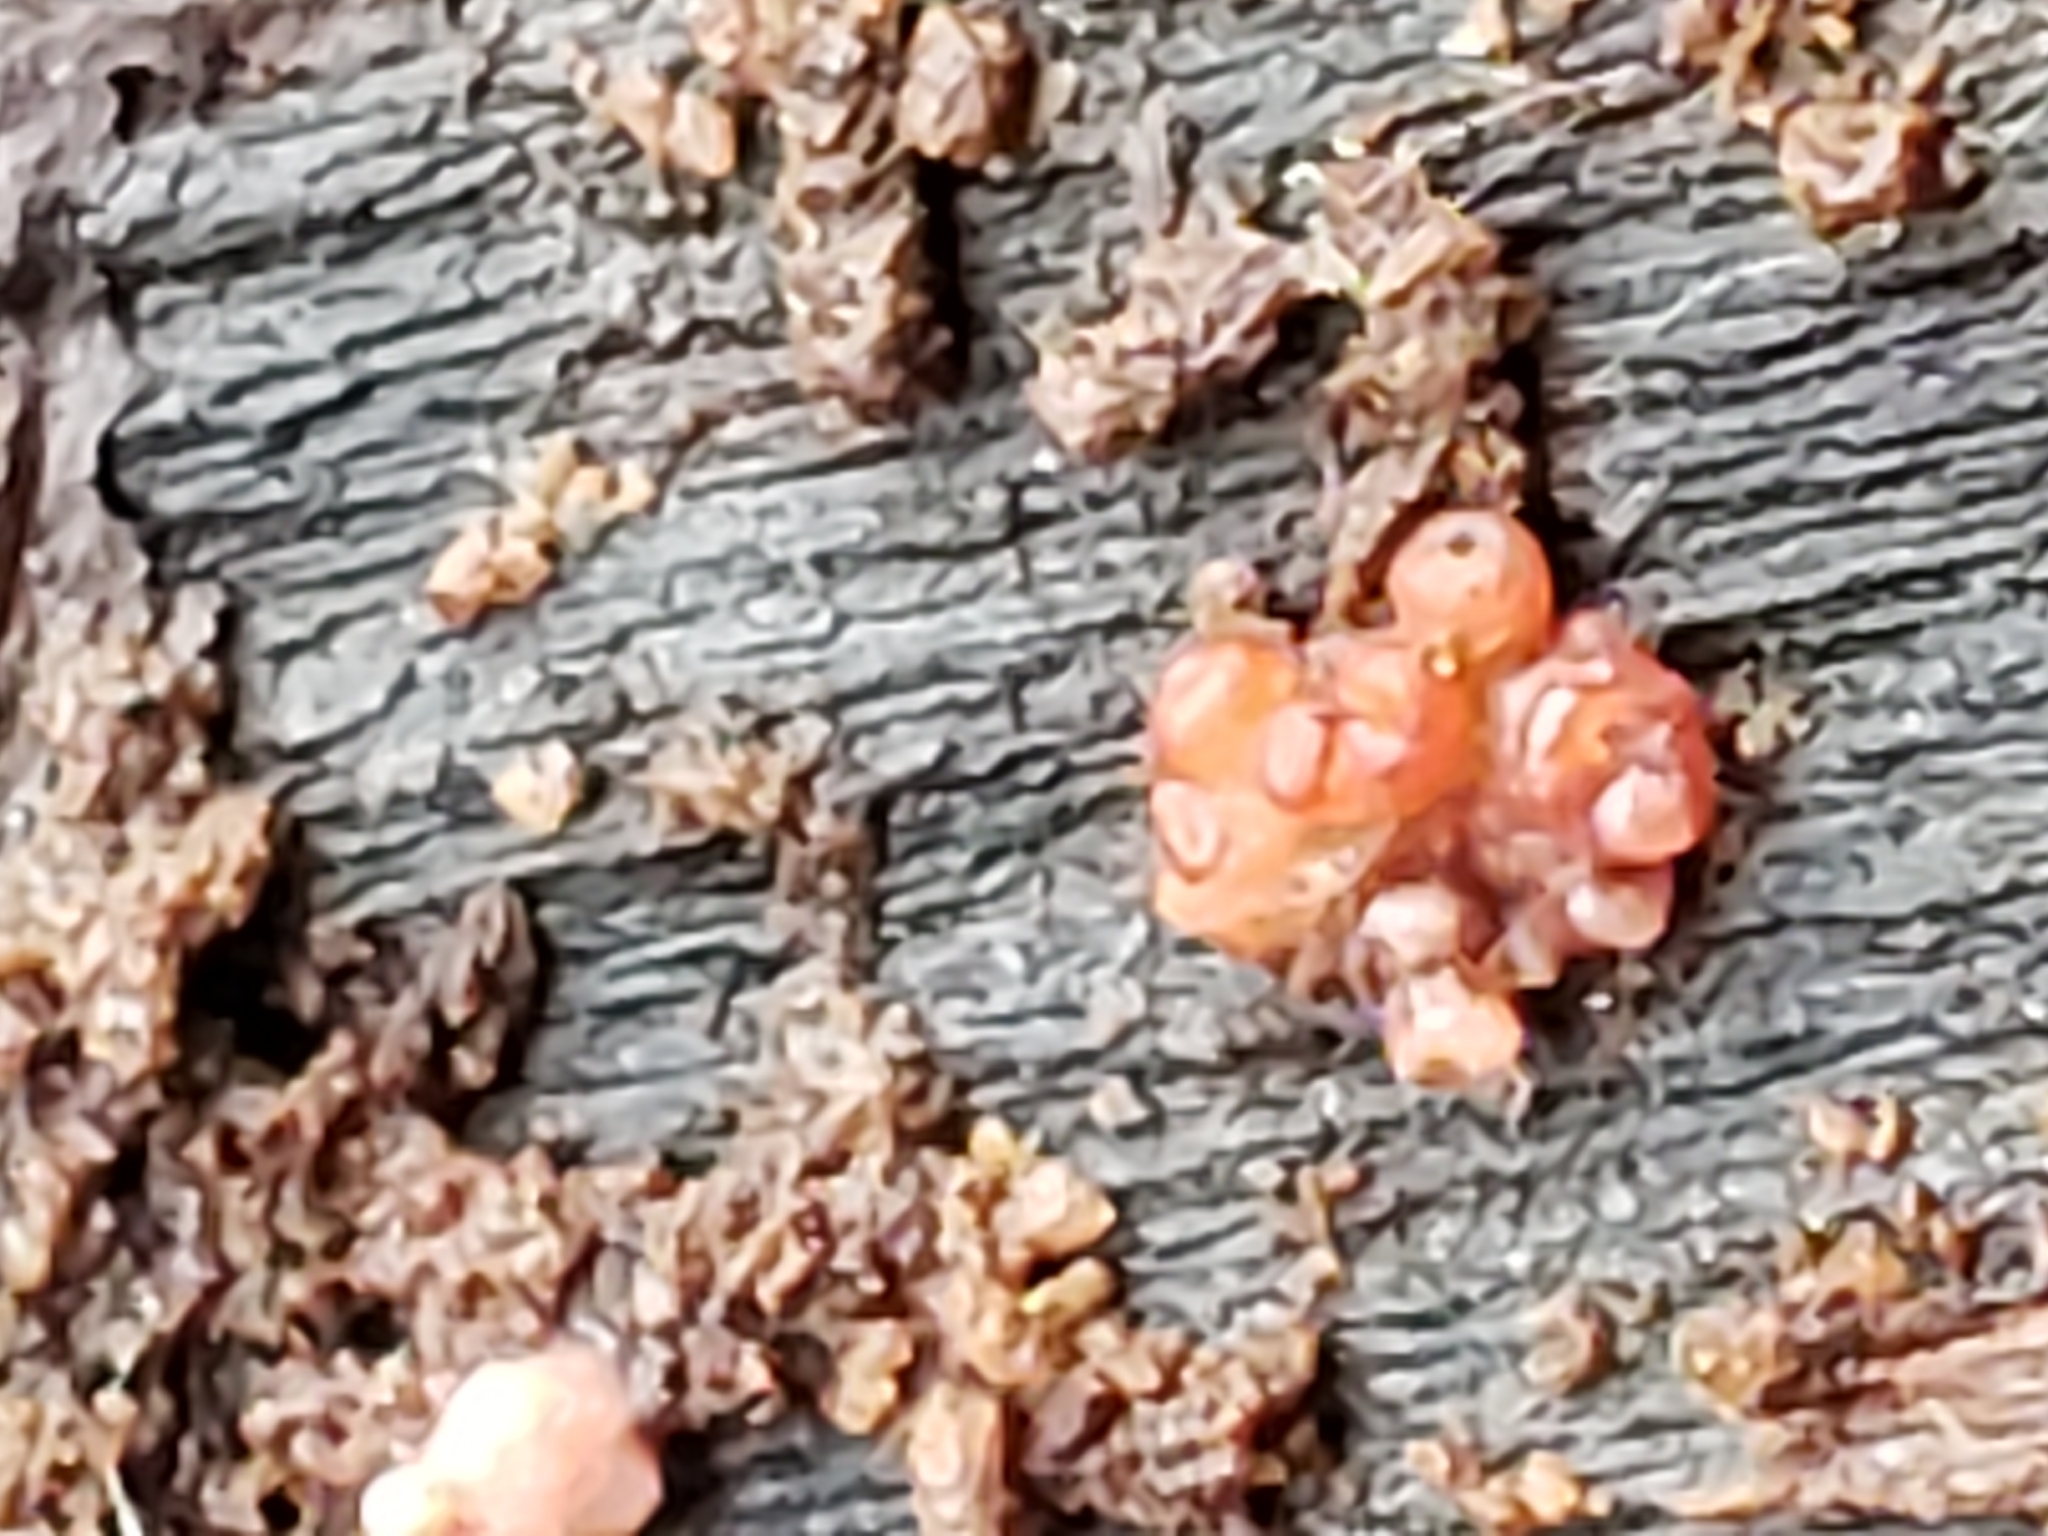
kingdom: Fungi
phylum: Ascomycota
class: Leotiomycetes
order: Helotiales
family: Gelatinodiscaceae
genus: Ascocoryne
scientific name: Ascocoryne sarcoides
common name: Purple jellydisc
